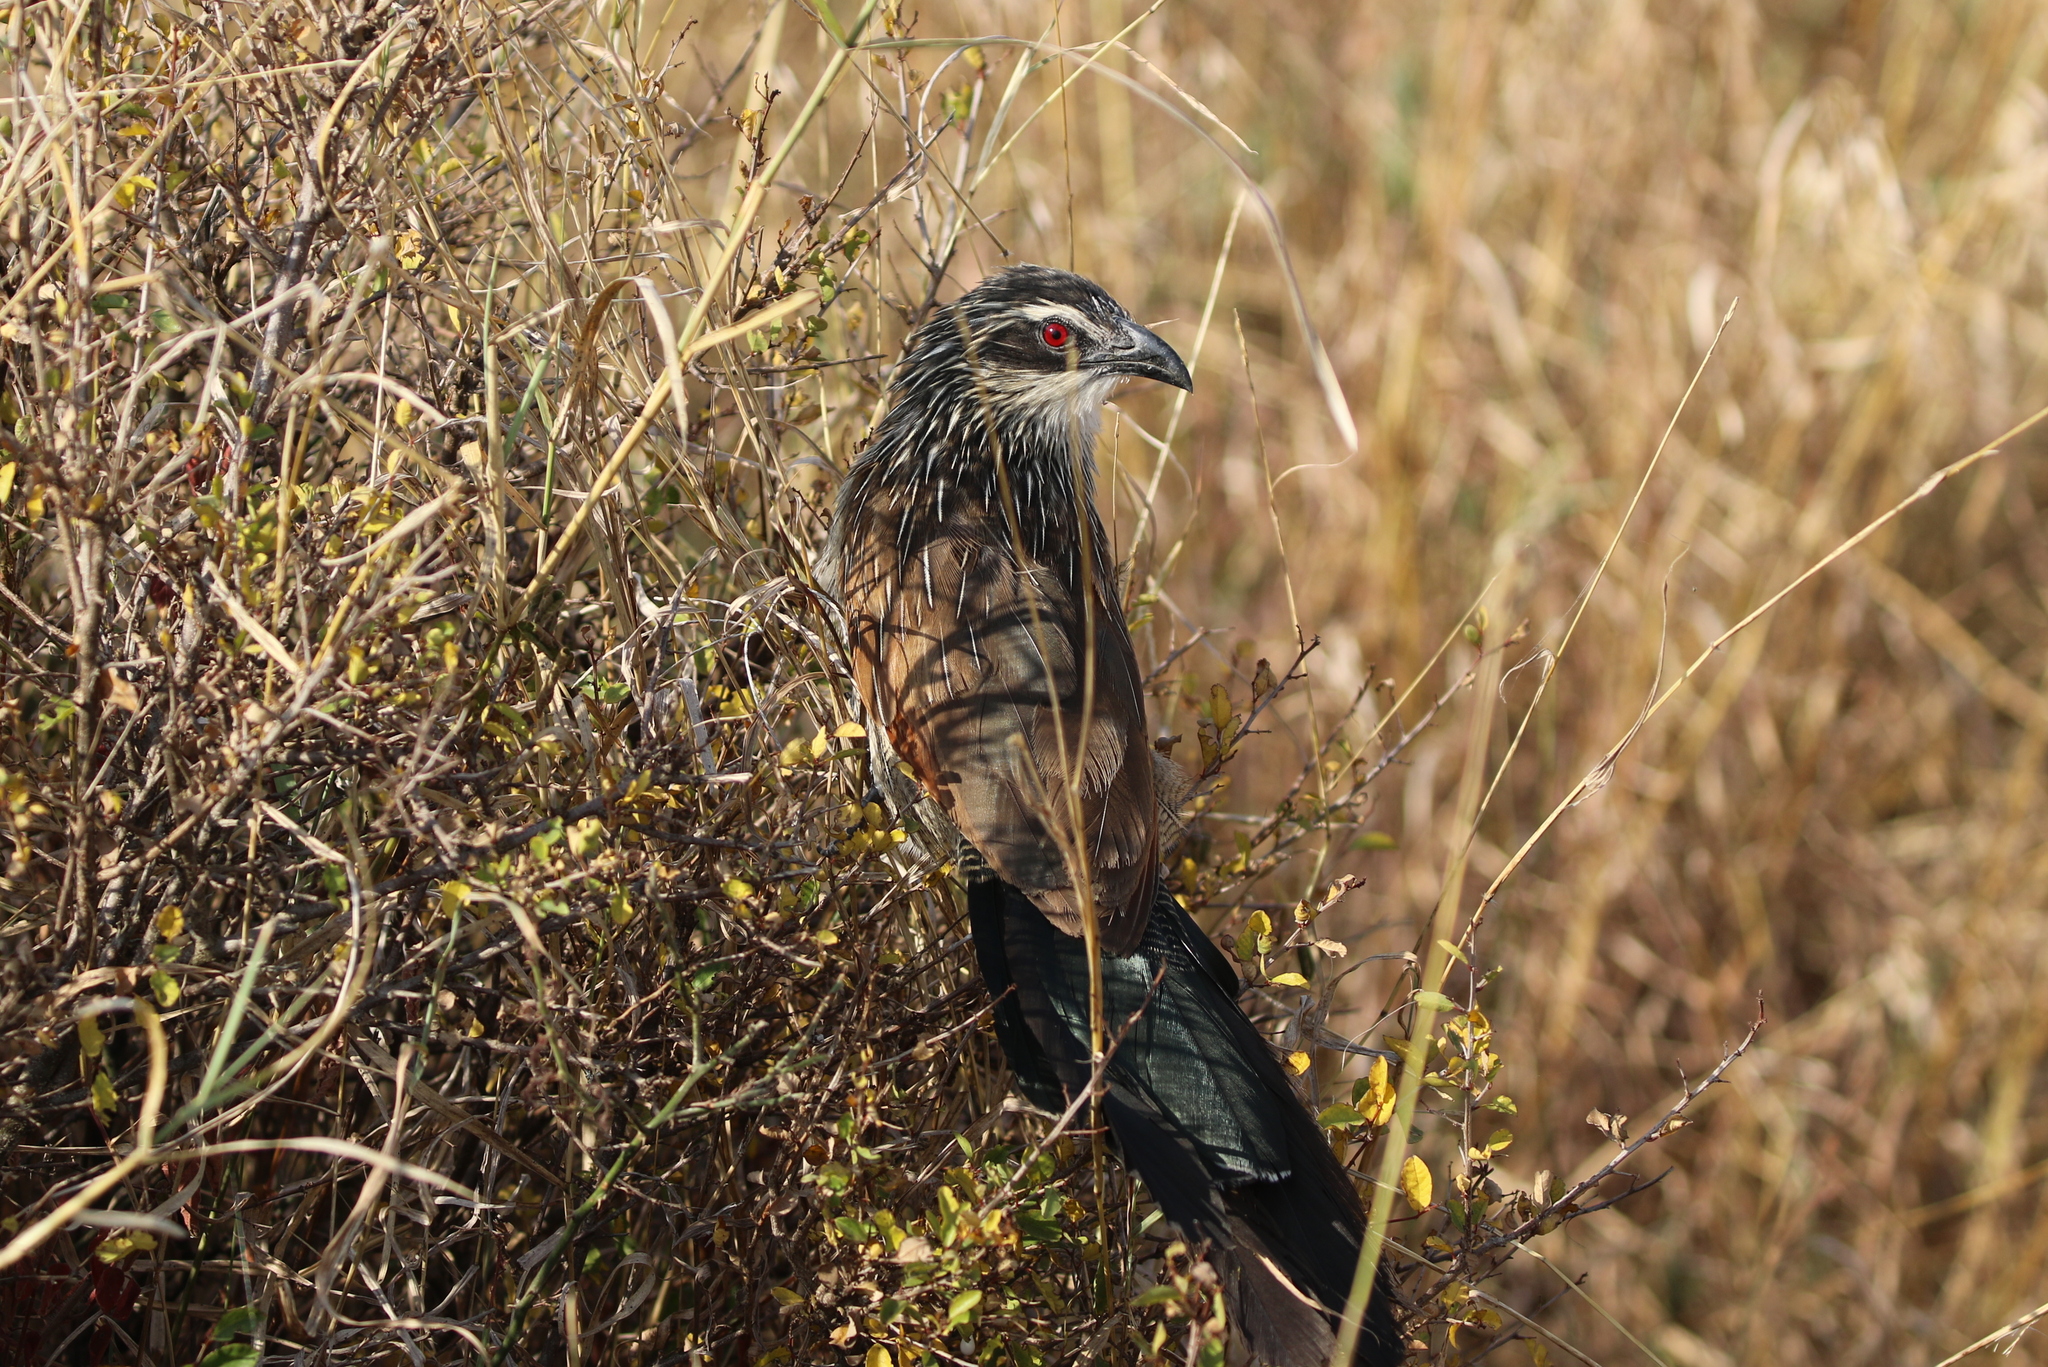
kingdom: Animalia
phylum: Chordata
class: Aves
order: Cuculiformes
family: Cuculidae
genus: Centropus
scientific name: Centropus superciliosus
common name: White-browed coucal
